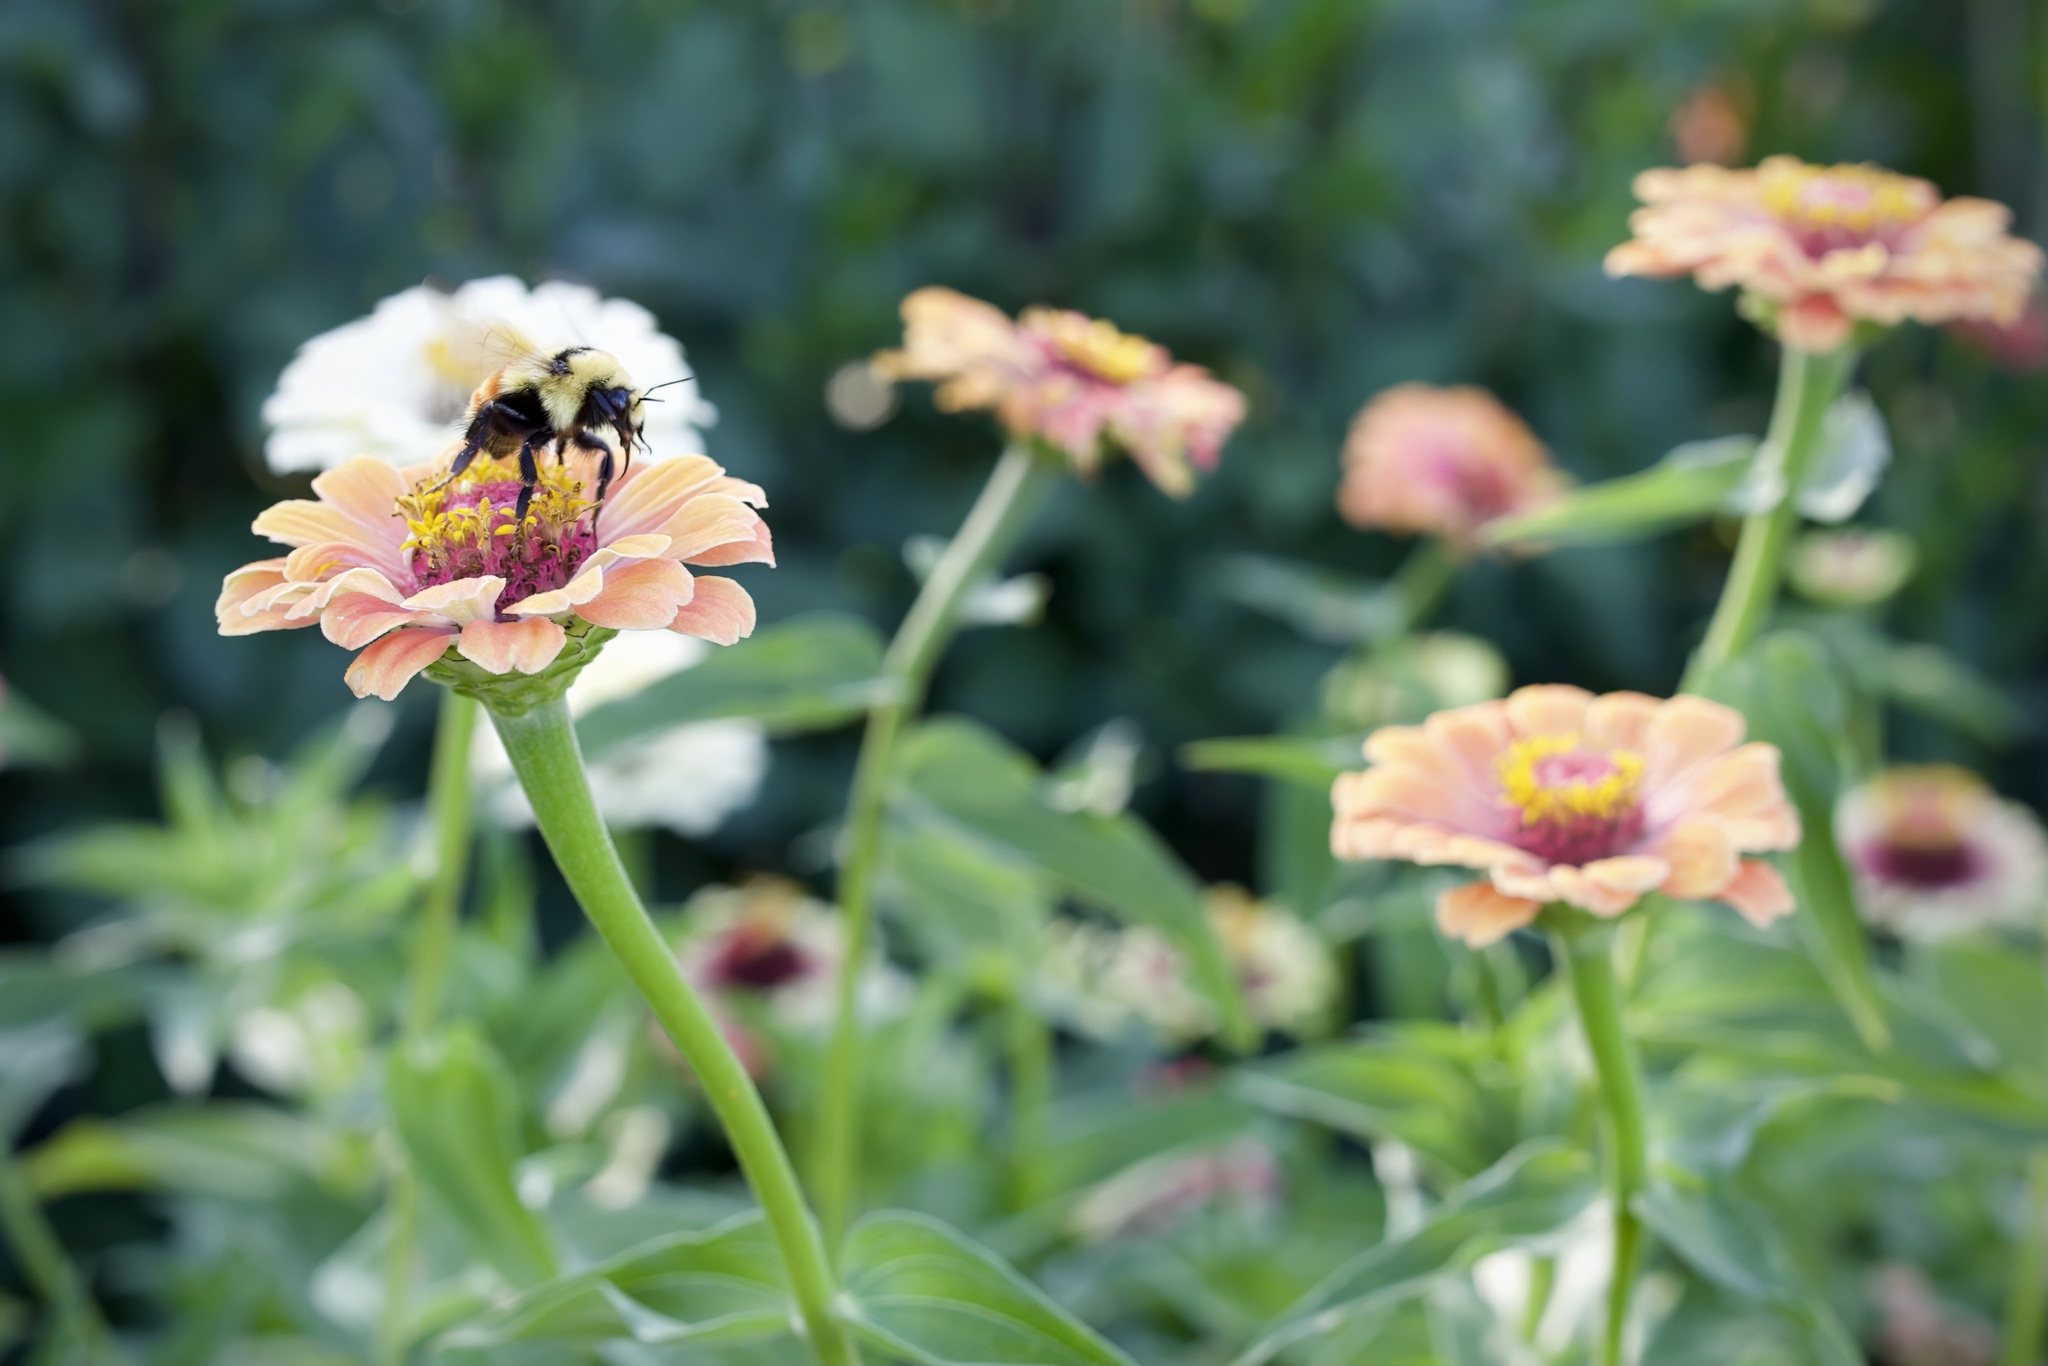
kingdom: Animalia
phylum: Arthropoda
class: Insecta
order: Hymenoptera
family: Apidae
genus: Bombus
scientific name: Bombus huntii
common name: Hunt bumble bee
